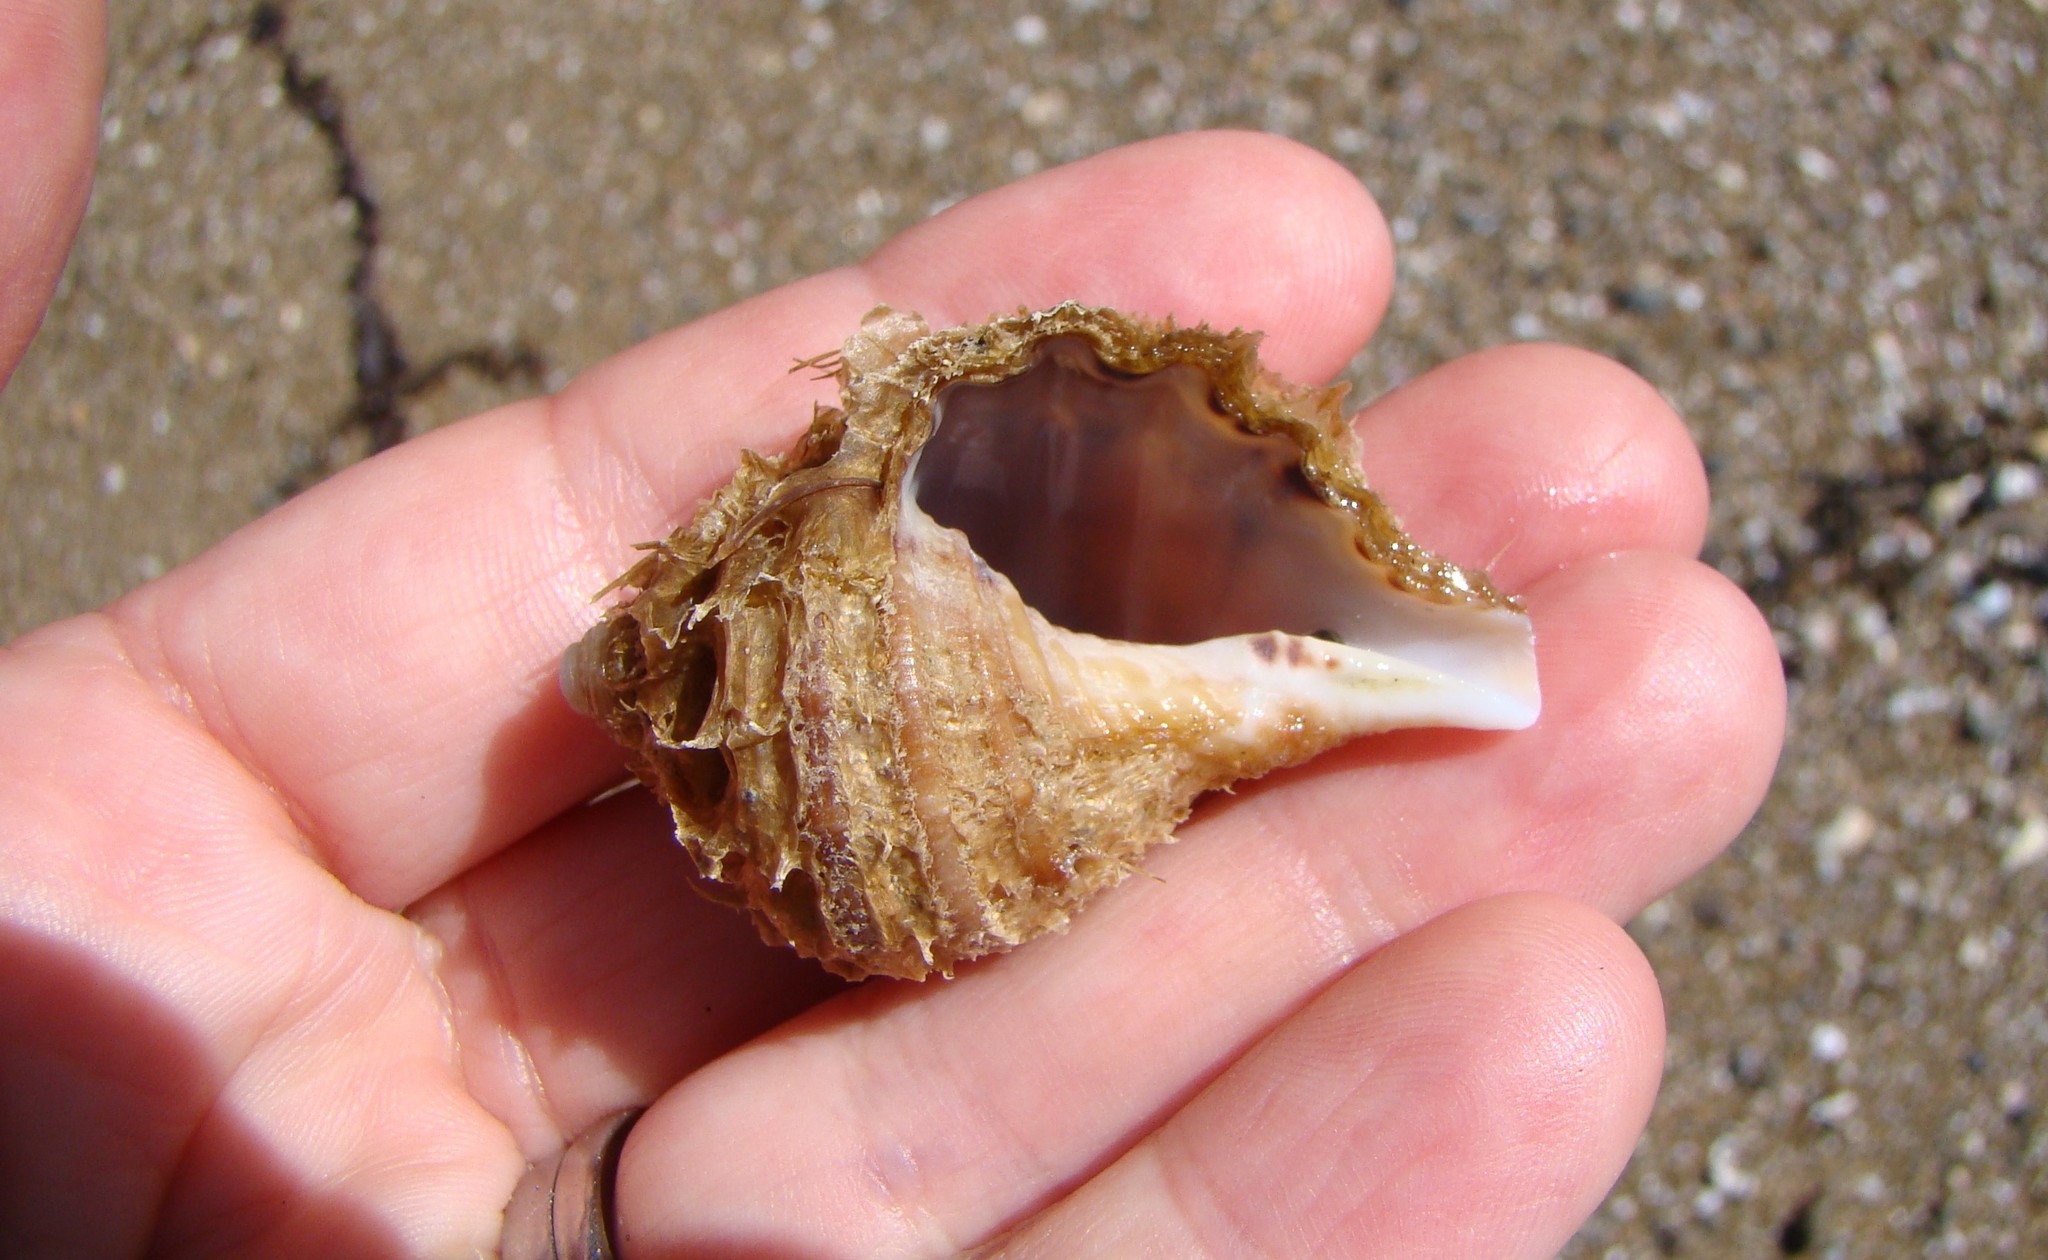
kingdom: Animalia
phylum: Mollusca
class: Gastropoda
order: Littorinimorpha
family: Cymatiidae
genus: Monoplex
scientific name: Monoplex parthenopeus
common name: Giant triton
